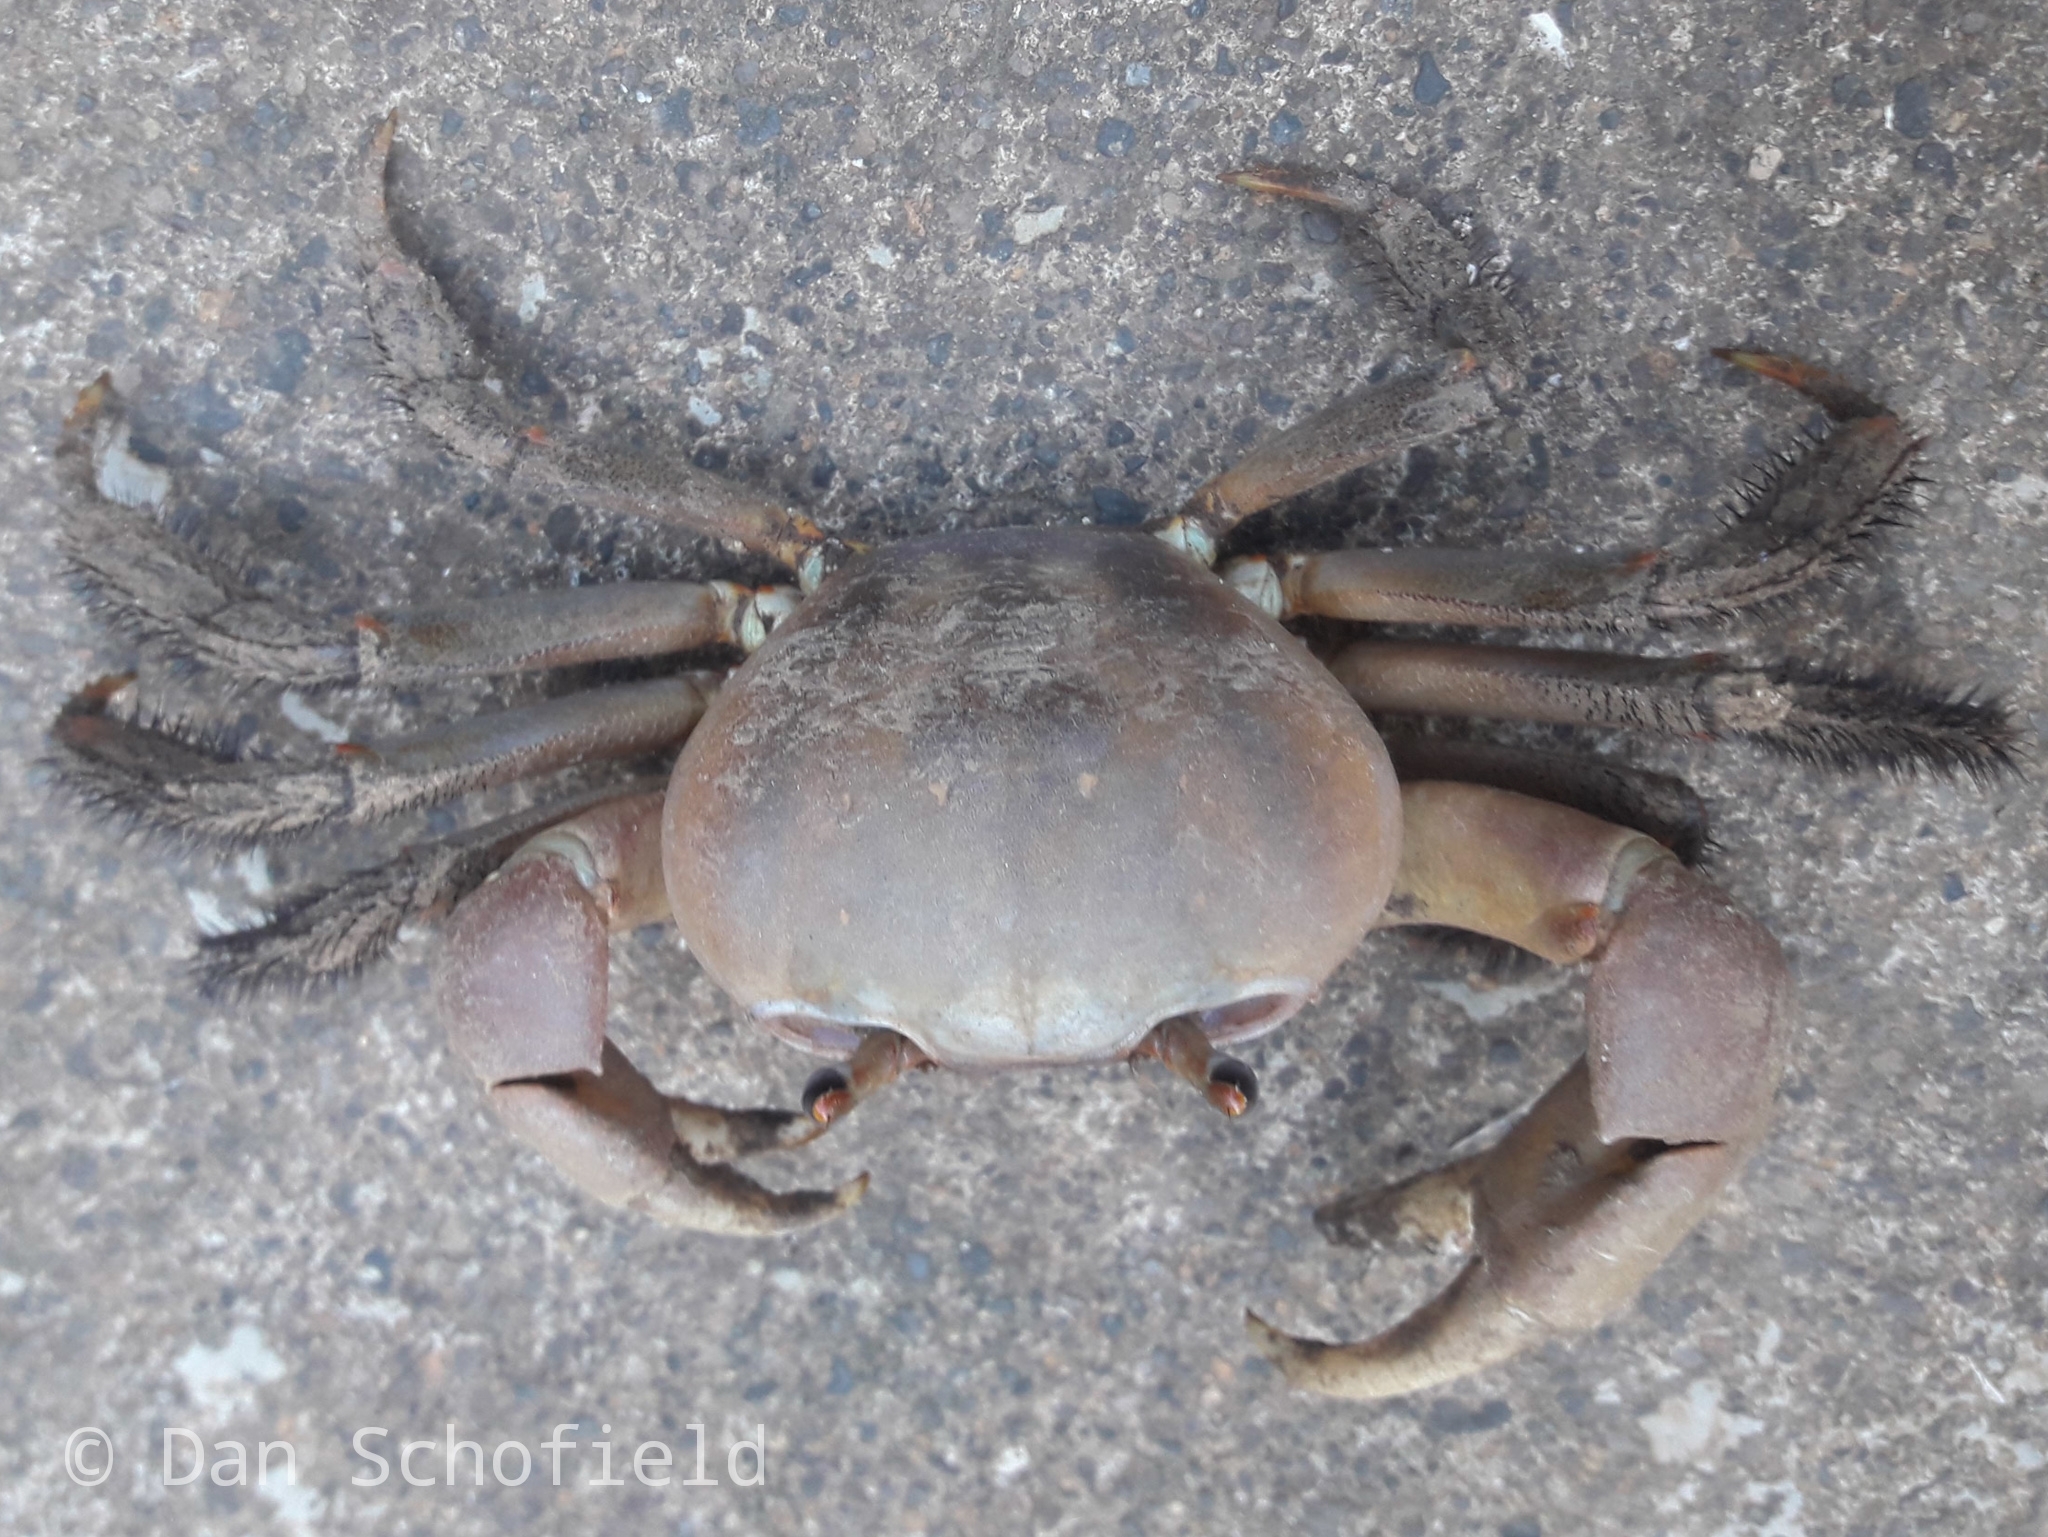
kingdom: Animalia
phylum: Arthropoda
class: Malacostraca
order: Decapoda
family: Gecarcinidae
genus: Cardisoma
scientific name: Cardisoma carnifex
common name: Brown land crab
